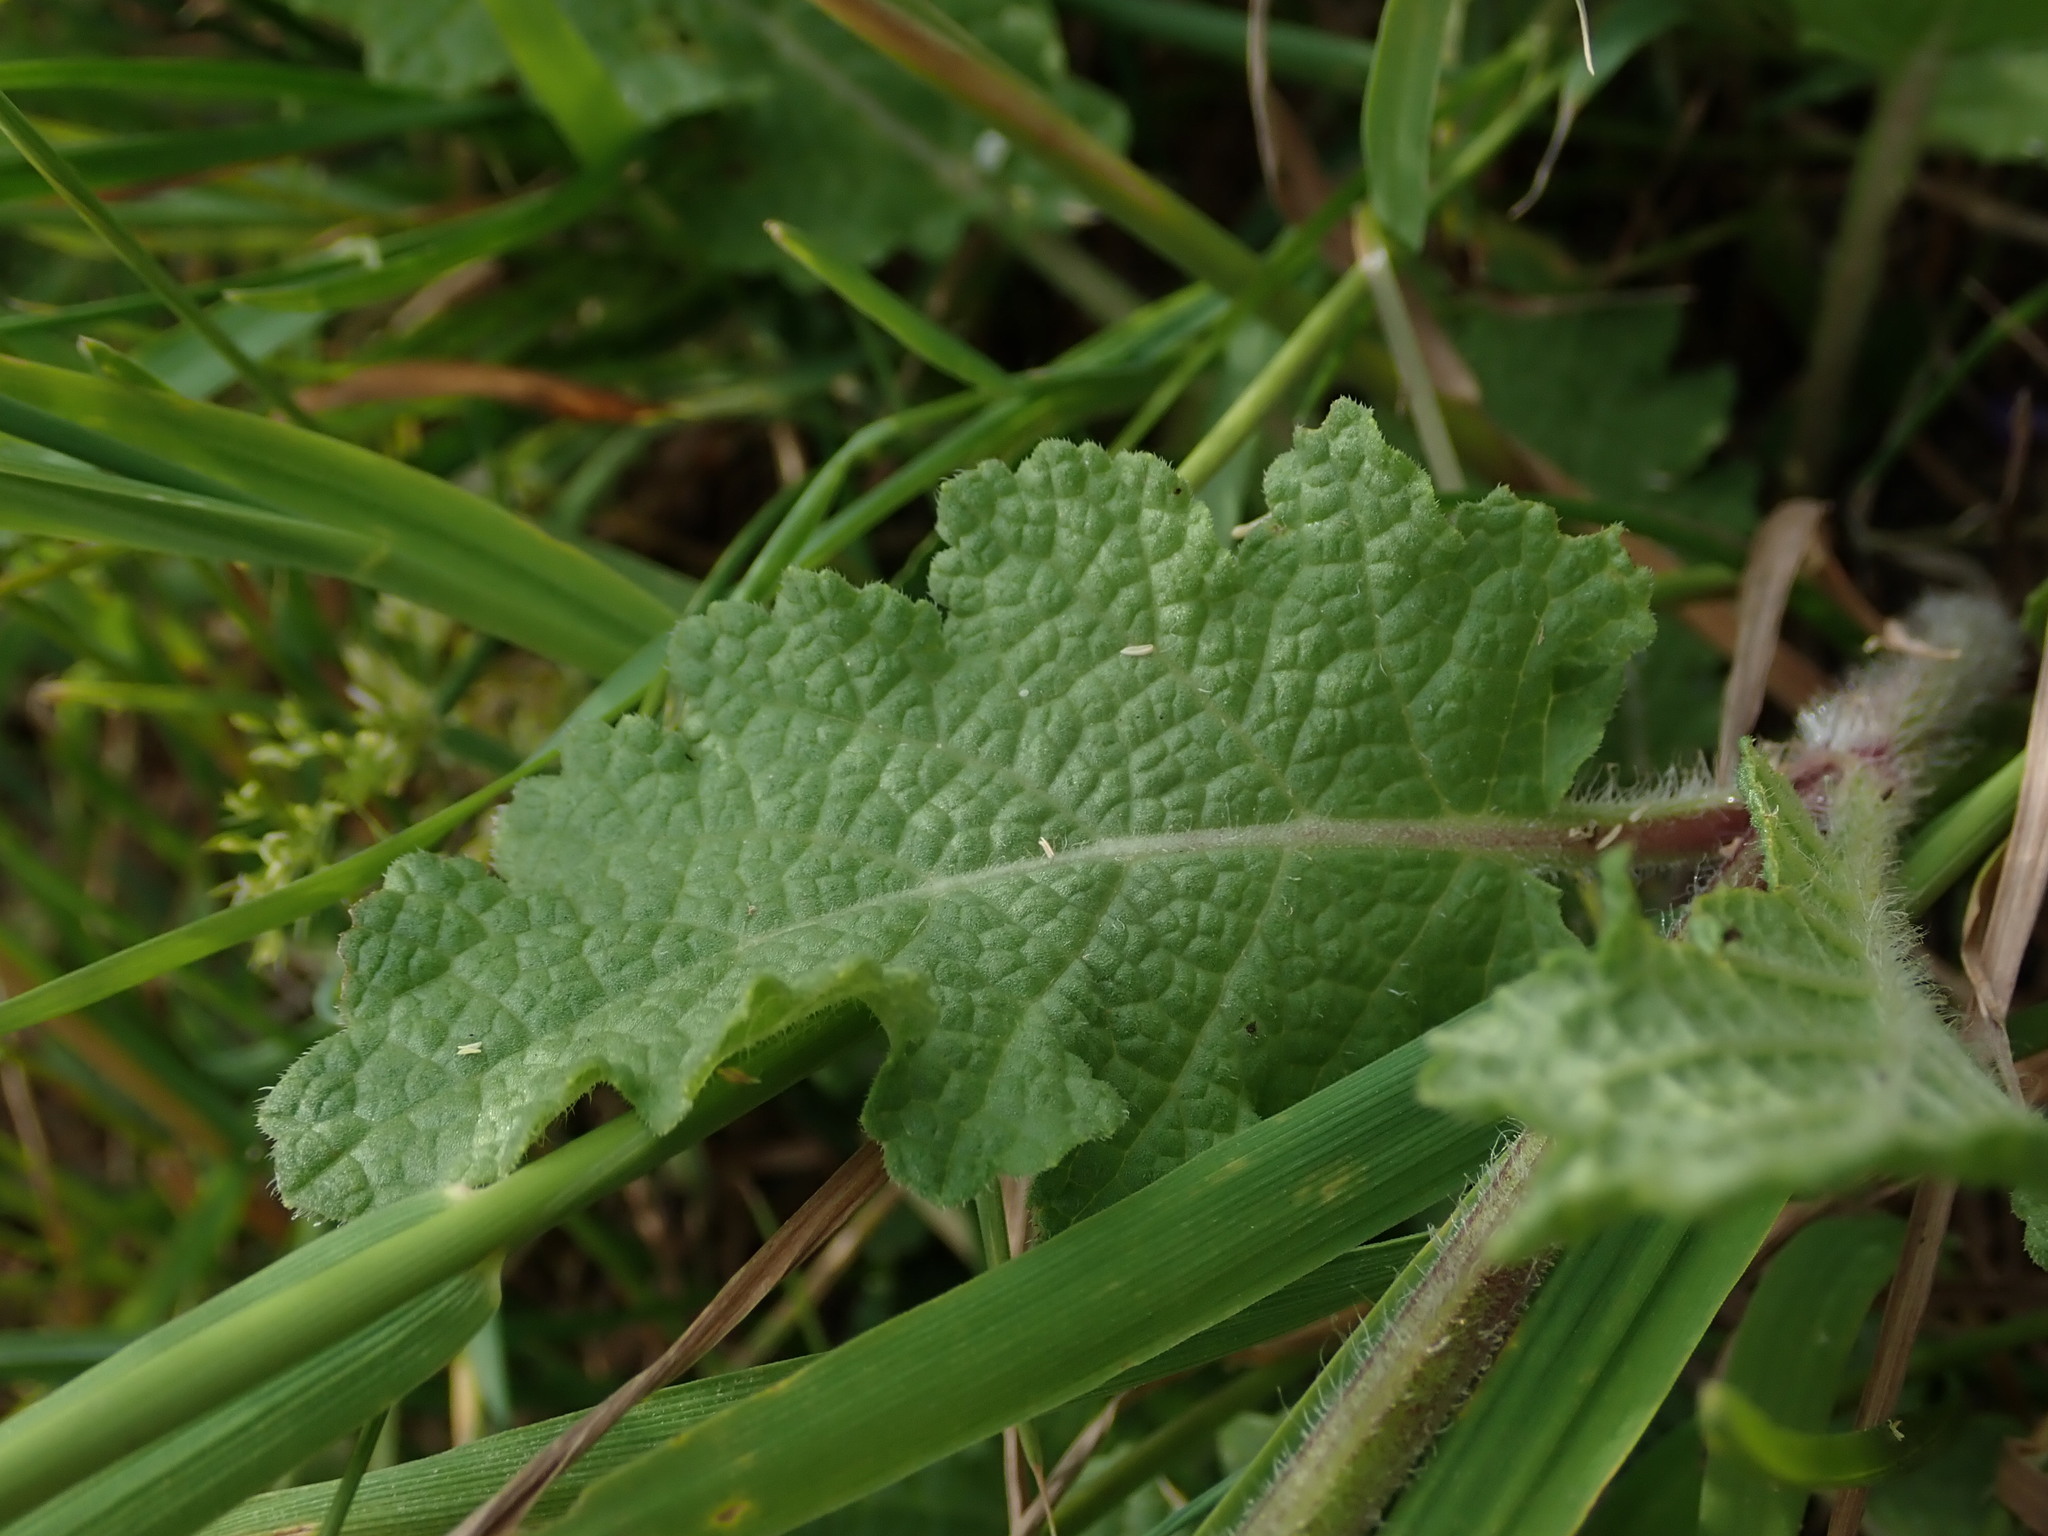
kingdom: Plantae
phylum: Tracheophyta
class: Magnoliopsida
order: Lamiales
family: Lamiaceae
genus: Salvia
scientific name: Salvia verbenaca
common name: Wild clary
